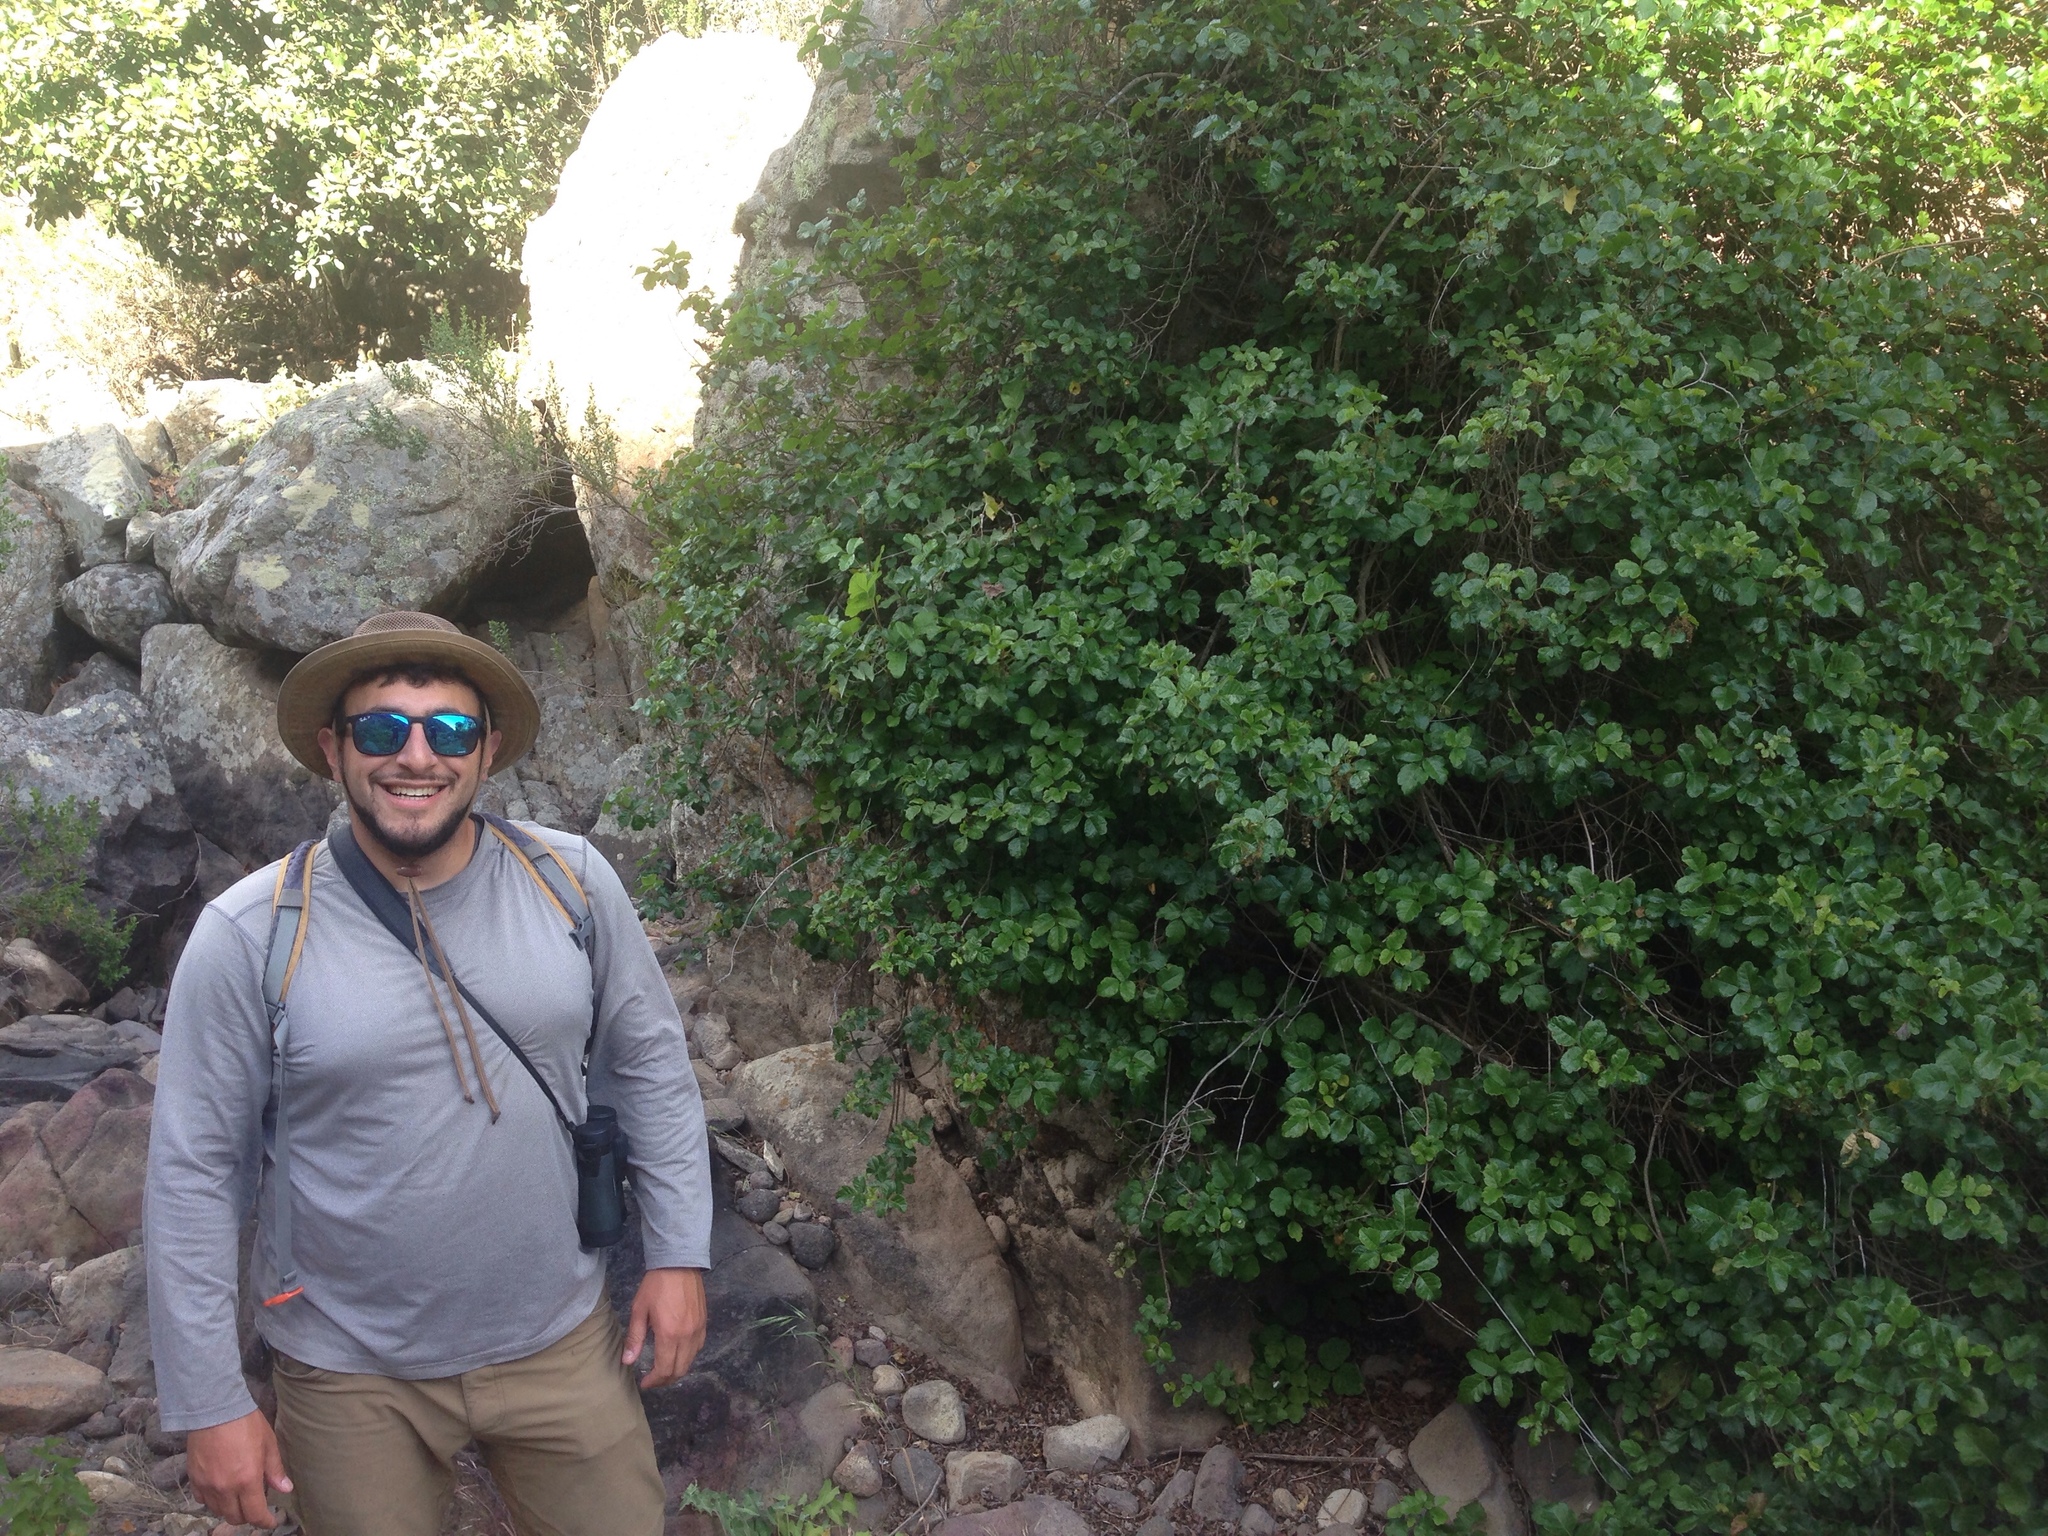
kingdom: Plantae
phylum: Tracheophyta
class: Magnoliopsida
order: Sapindales
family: Anacardiaceae
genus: Toxicodendron
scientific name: Toxicodendron diversilobum
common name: Pacific poison-oak
